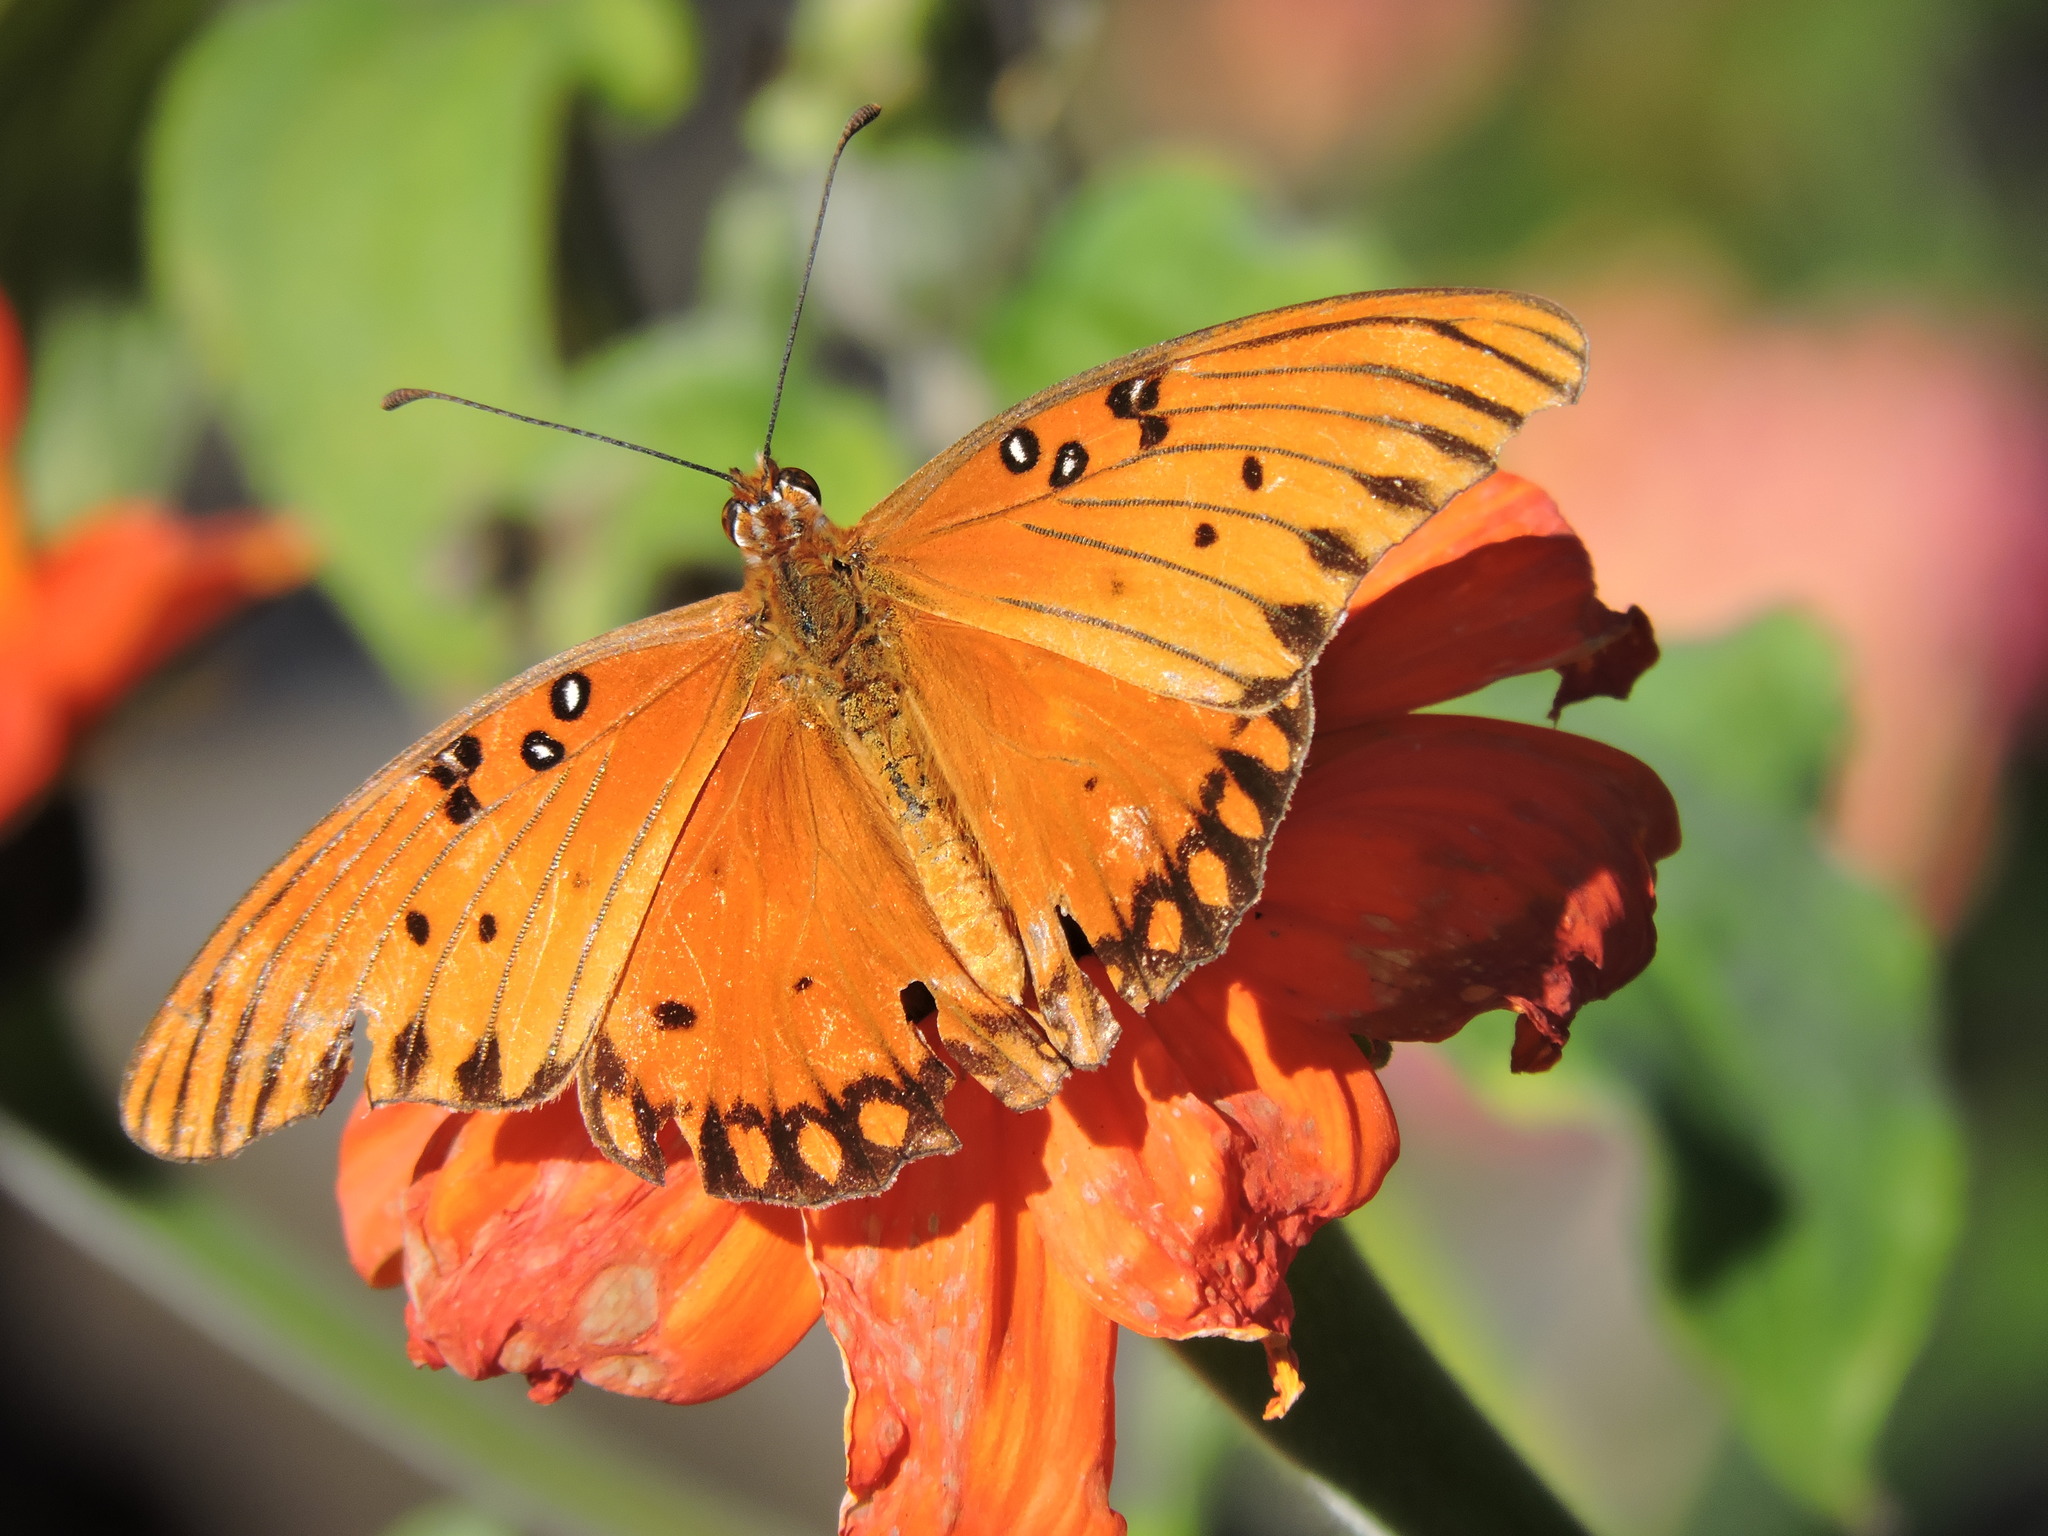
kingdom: Animalia
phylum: Arthropoda
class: Insecta
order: Lepidoptera
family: Nymphalidae
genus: Dione
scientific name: Dione vanillae
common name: Gulf fritillary
